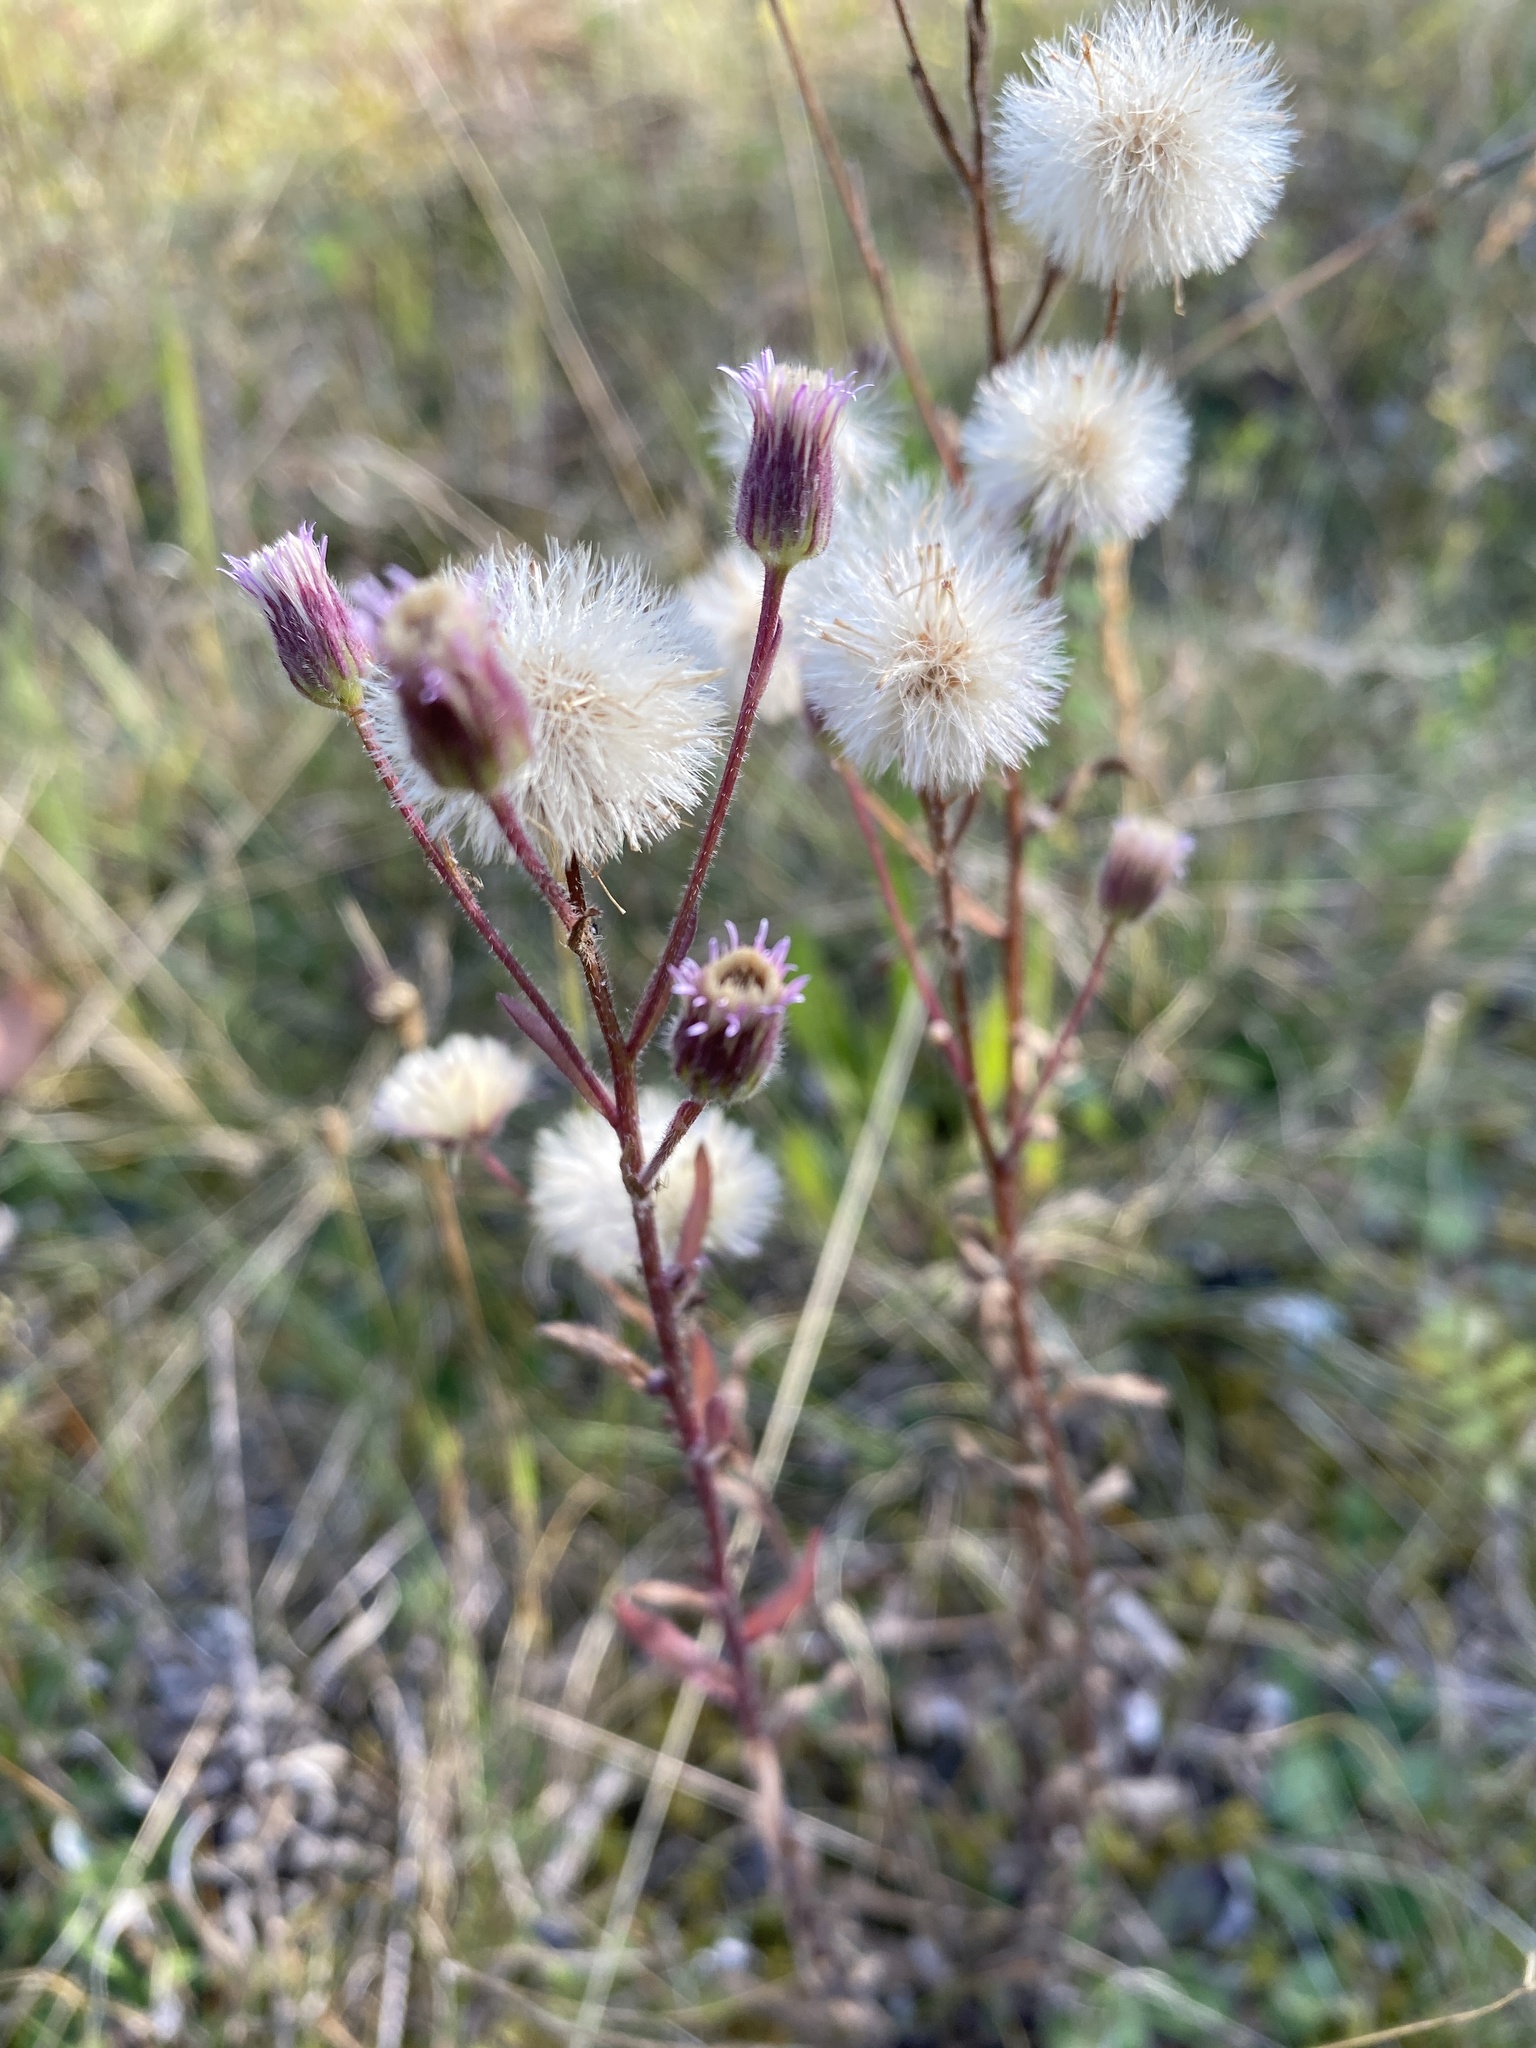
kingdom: Plantae
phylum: Tracheophyta
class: Magnoliopsida
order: Asterales
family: Asteraceae
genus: Erigeron
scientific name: Erigeron acris
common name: Blue fleabane
